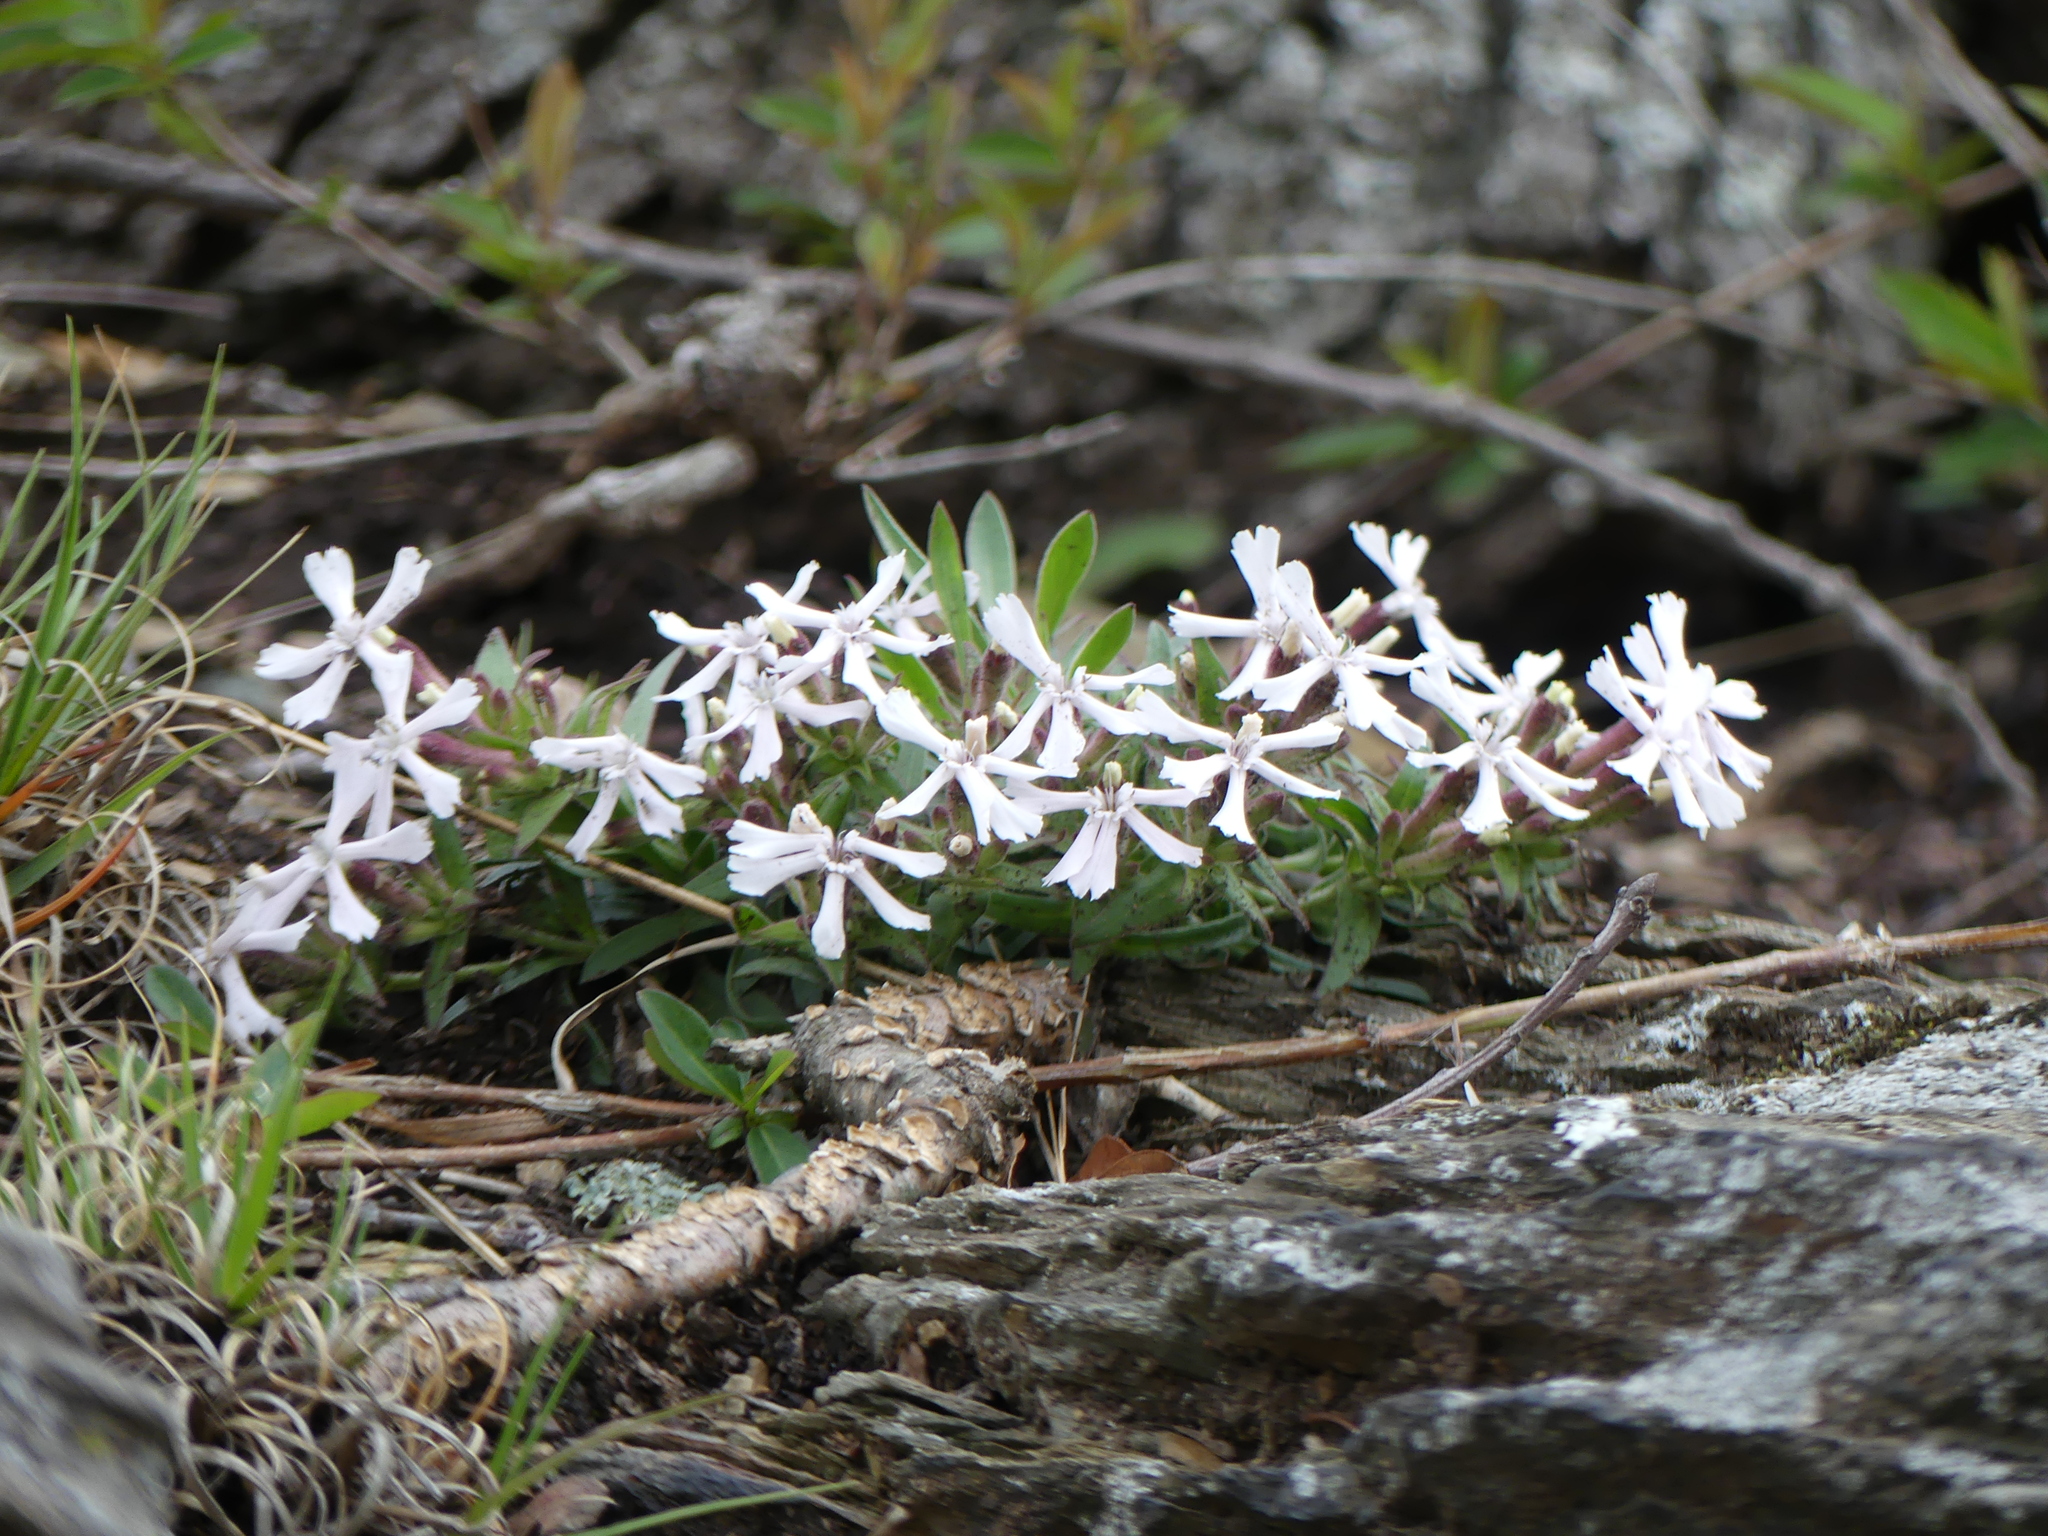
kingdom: Plantae
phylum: Tracheophyta
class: Magnoliopsida
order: Caryophyllales
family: Caryophyllaceae
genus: Silene
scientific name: Silene caroliniana
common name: Sticky catchfly
